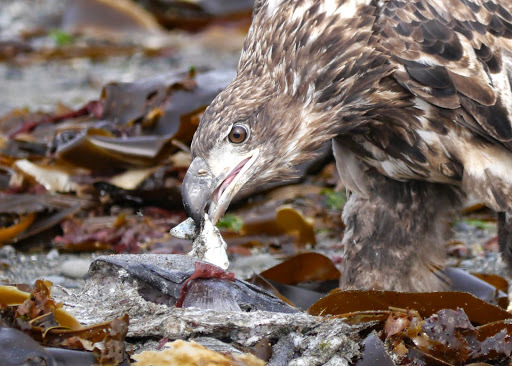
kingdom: Animalia
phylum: Chordata
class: Aves
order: Accipitriformes
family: Accipitridae
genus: Haliaeetus
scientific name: Haliaeetus leucocephalus
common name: Bald eagle
